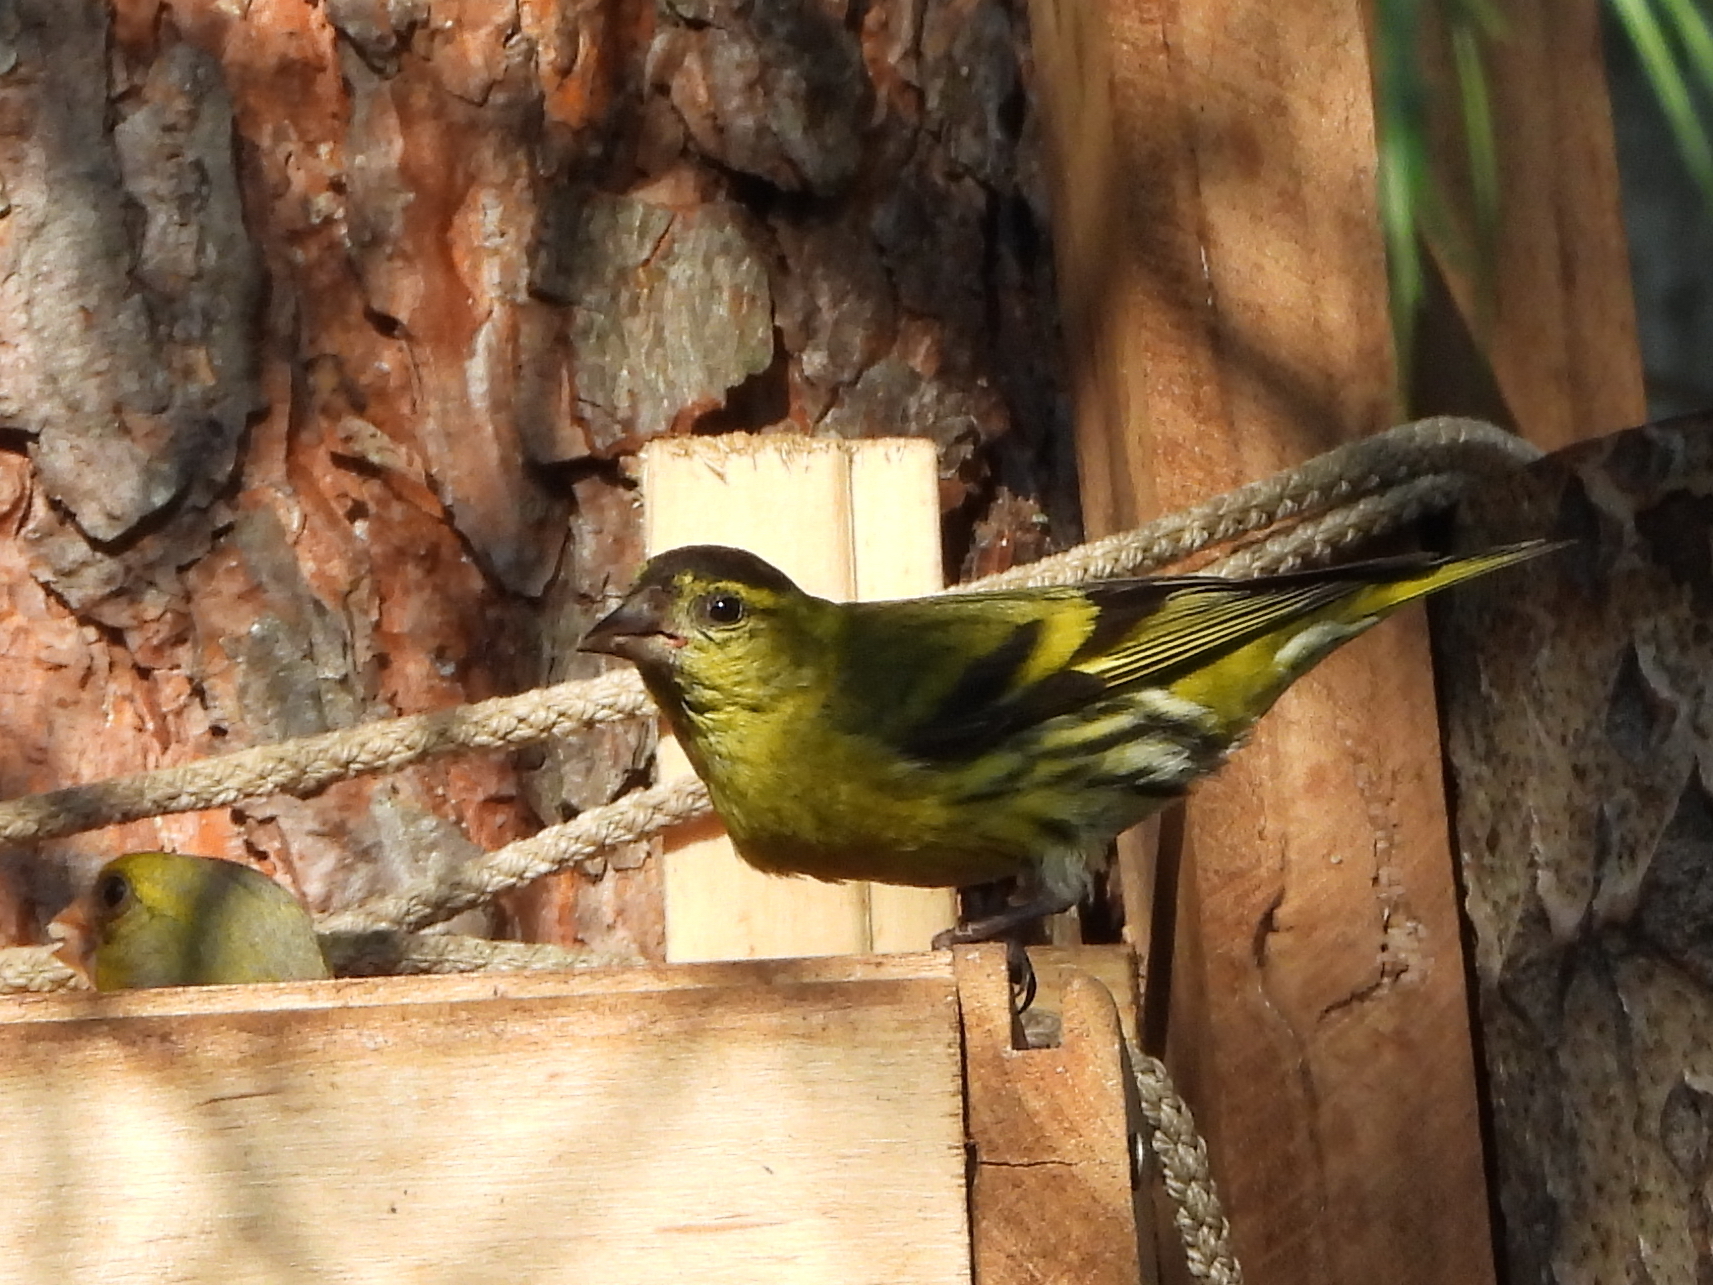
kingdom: Animalia
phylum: Chordata
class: Aves
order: Passeriformes
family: Fringillidae
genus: Spinus
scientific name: Spinus spinus
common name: Eurasian siskin
